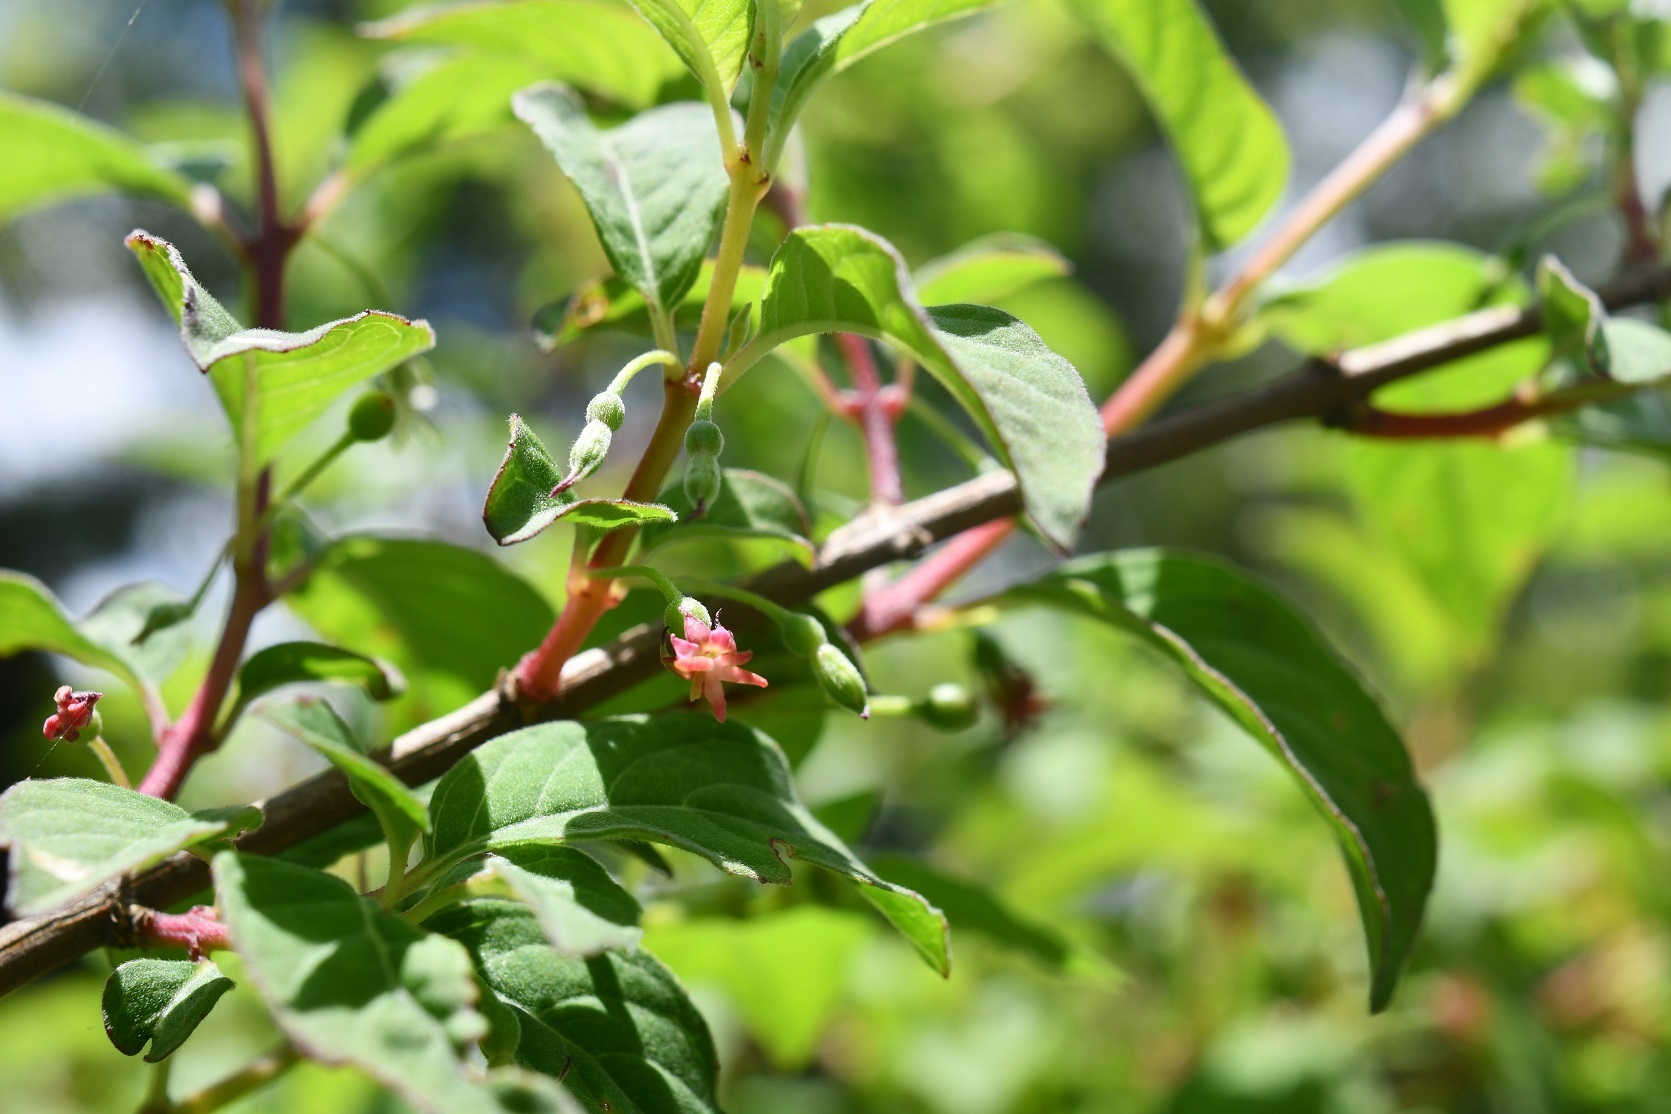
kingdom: Plantae
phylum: Tracheophyta
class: Magnoliopsida
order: Myrtales
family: Onagraceae
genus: Fuchsia
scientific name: Fuchsia encliandra
